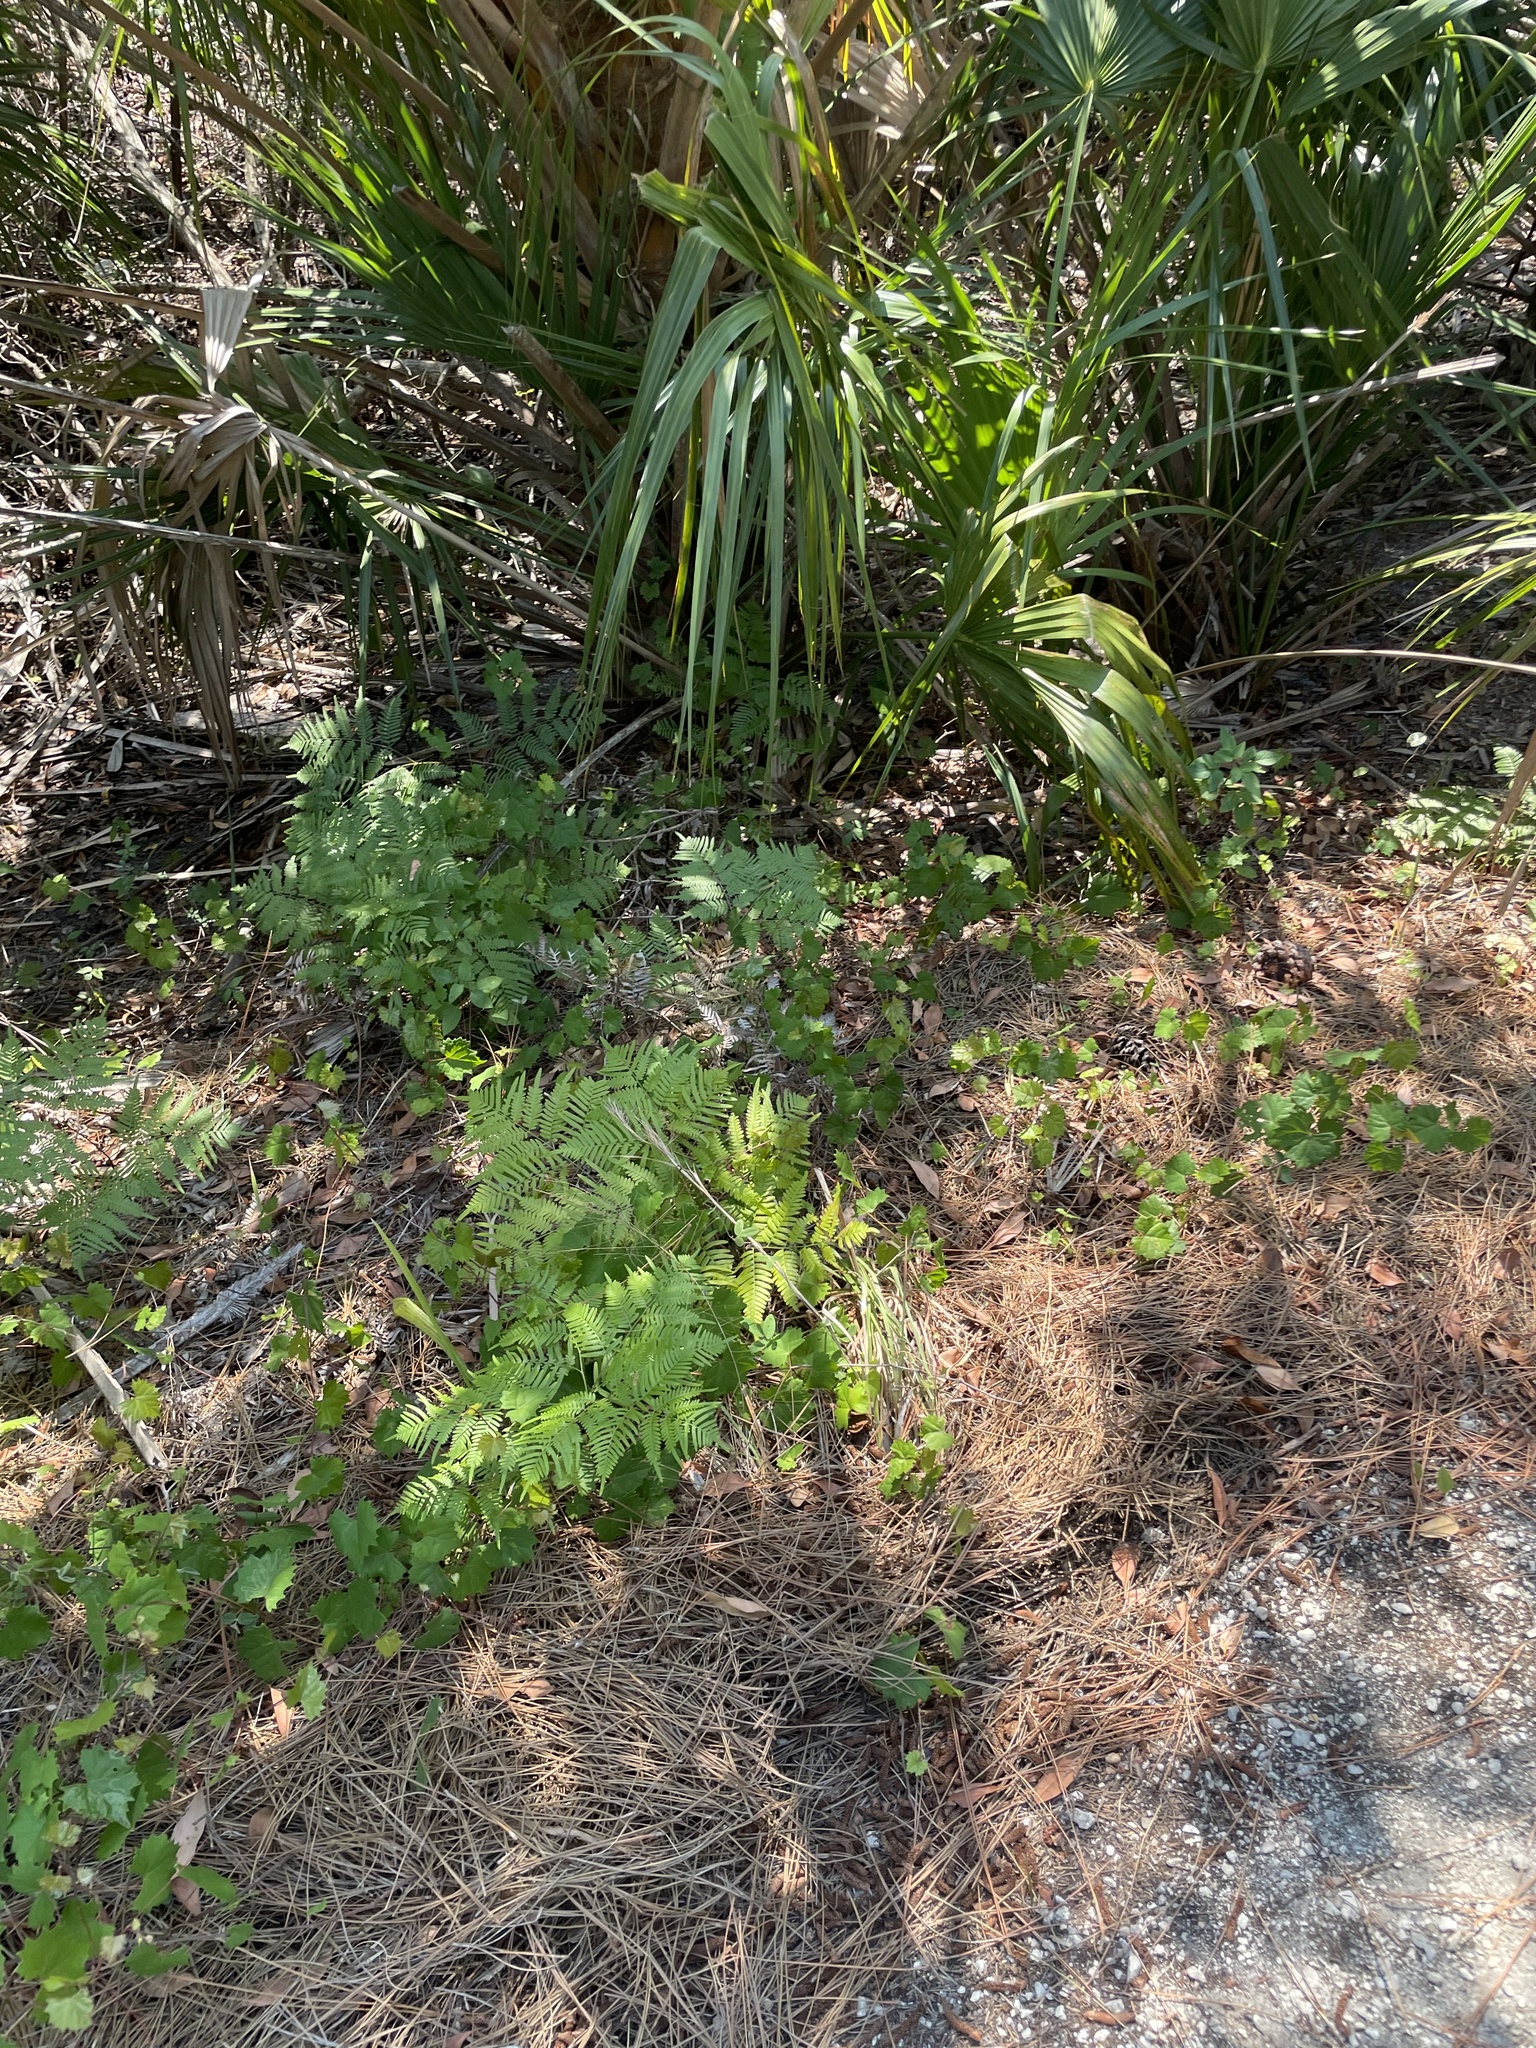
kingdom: Plantae
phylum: Tracheophyta
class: Polypodiopsida
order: Polypodiales
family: Dennstaedtiaceae
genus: Pteridium
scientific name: Pteridium caudatum
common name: Southern bracken fern
